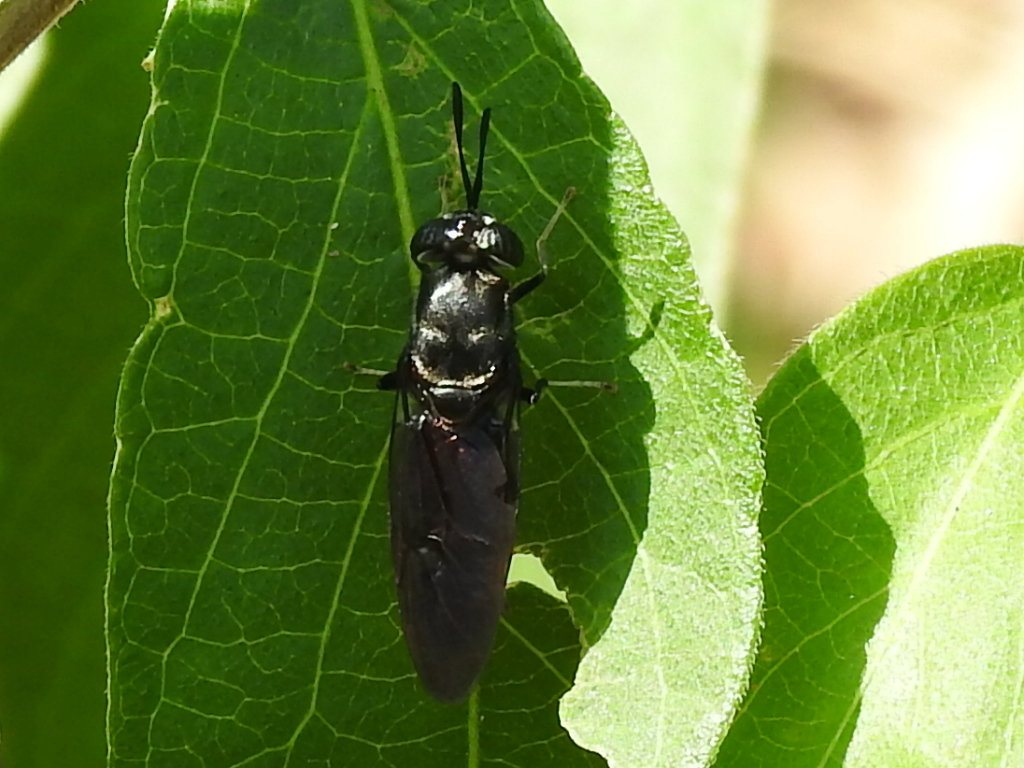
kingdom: Animalia
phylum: Arthropoda
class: Insecta
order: Diptera
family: Stratiomyidae
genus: Hermetia
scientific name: Hermetia illucens
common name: Black soldier fly
